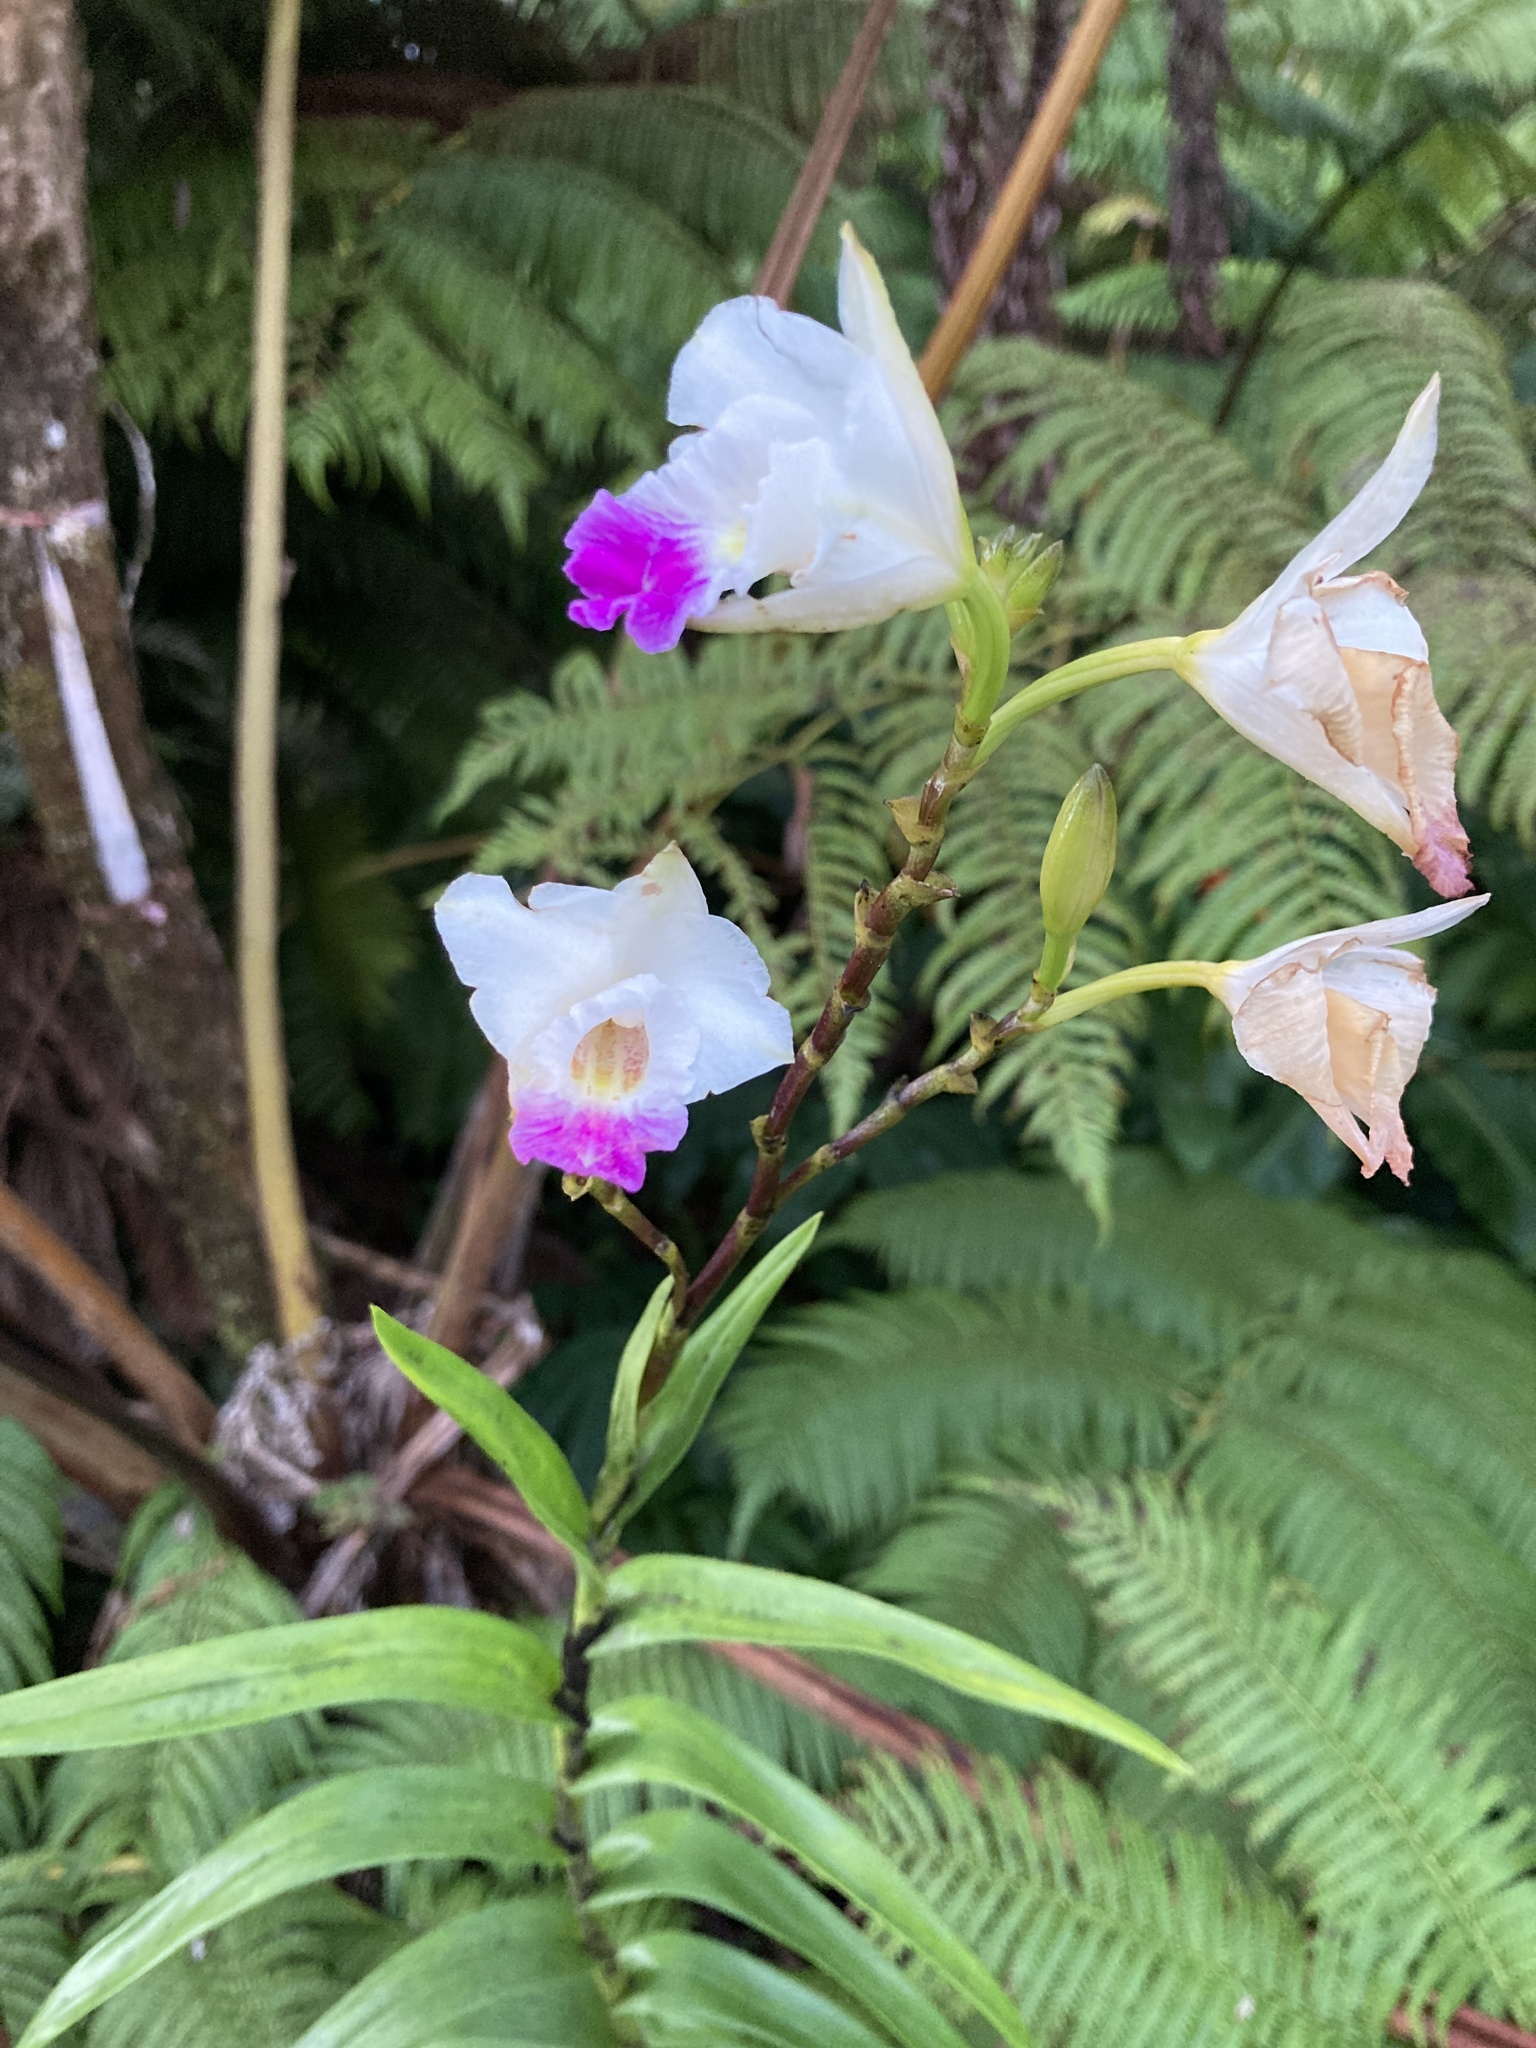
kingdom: Plantae
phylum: Tracheophyta
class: Liliopsida
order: Asparagales
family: Orchidaceae
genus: Arundina
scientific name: Arundina graminifolia
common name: Bamboo orchid
